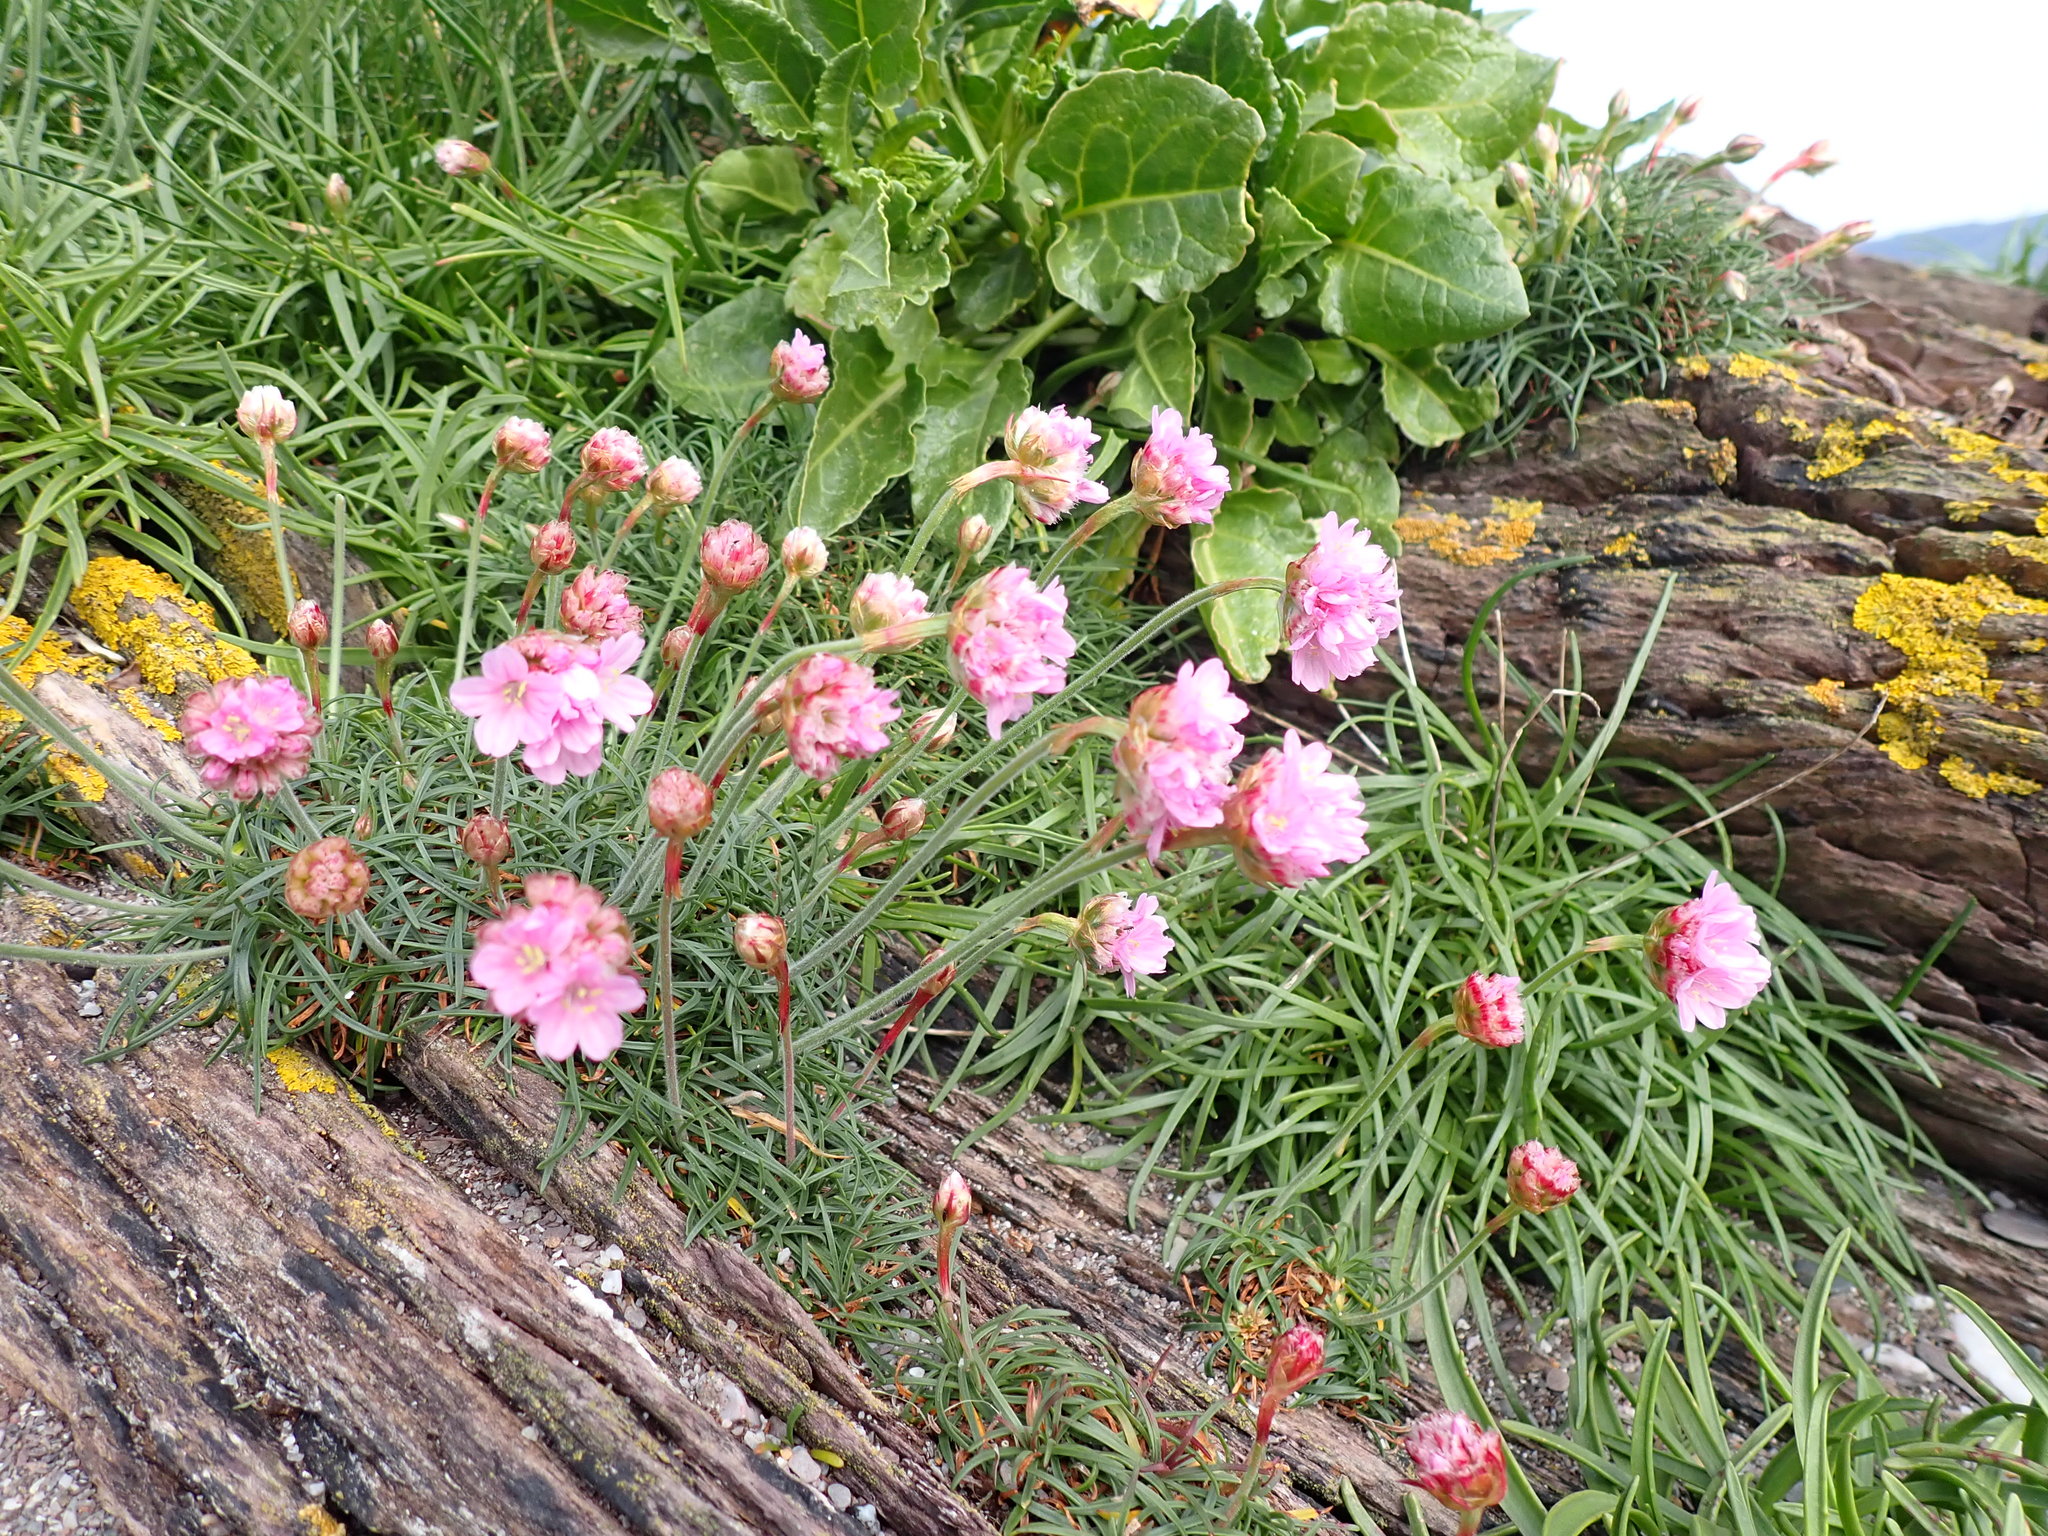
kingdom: Plantae
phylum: Tracheophyta
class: Magnoliopsida
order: Caryophyllales
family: Plumbaginaceae
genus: Armeria
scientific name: Armeria maritima
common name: Thrift
